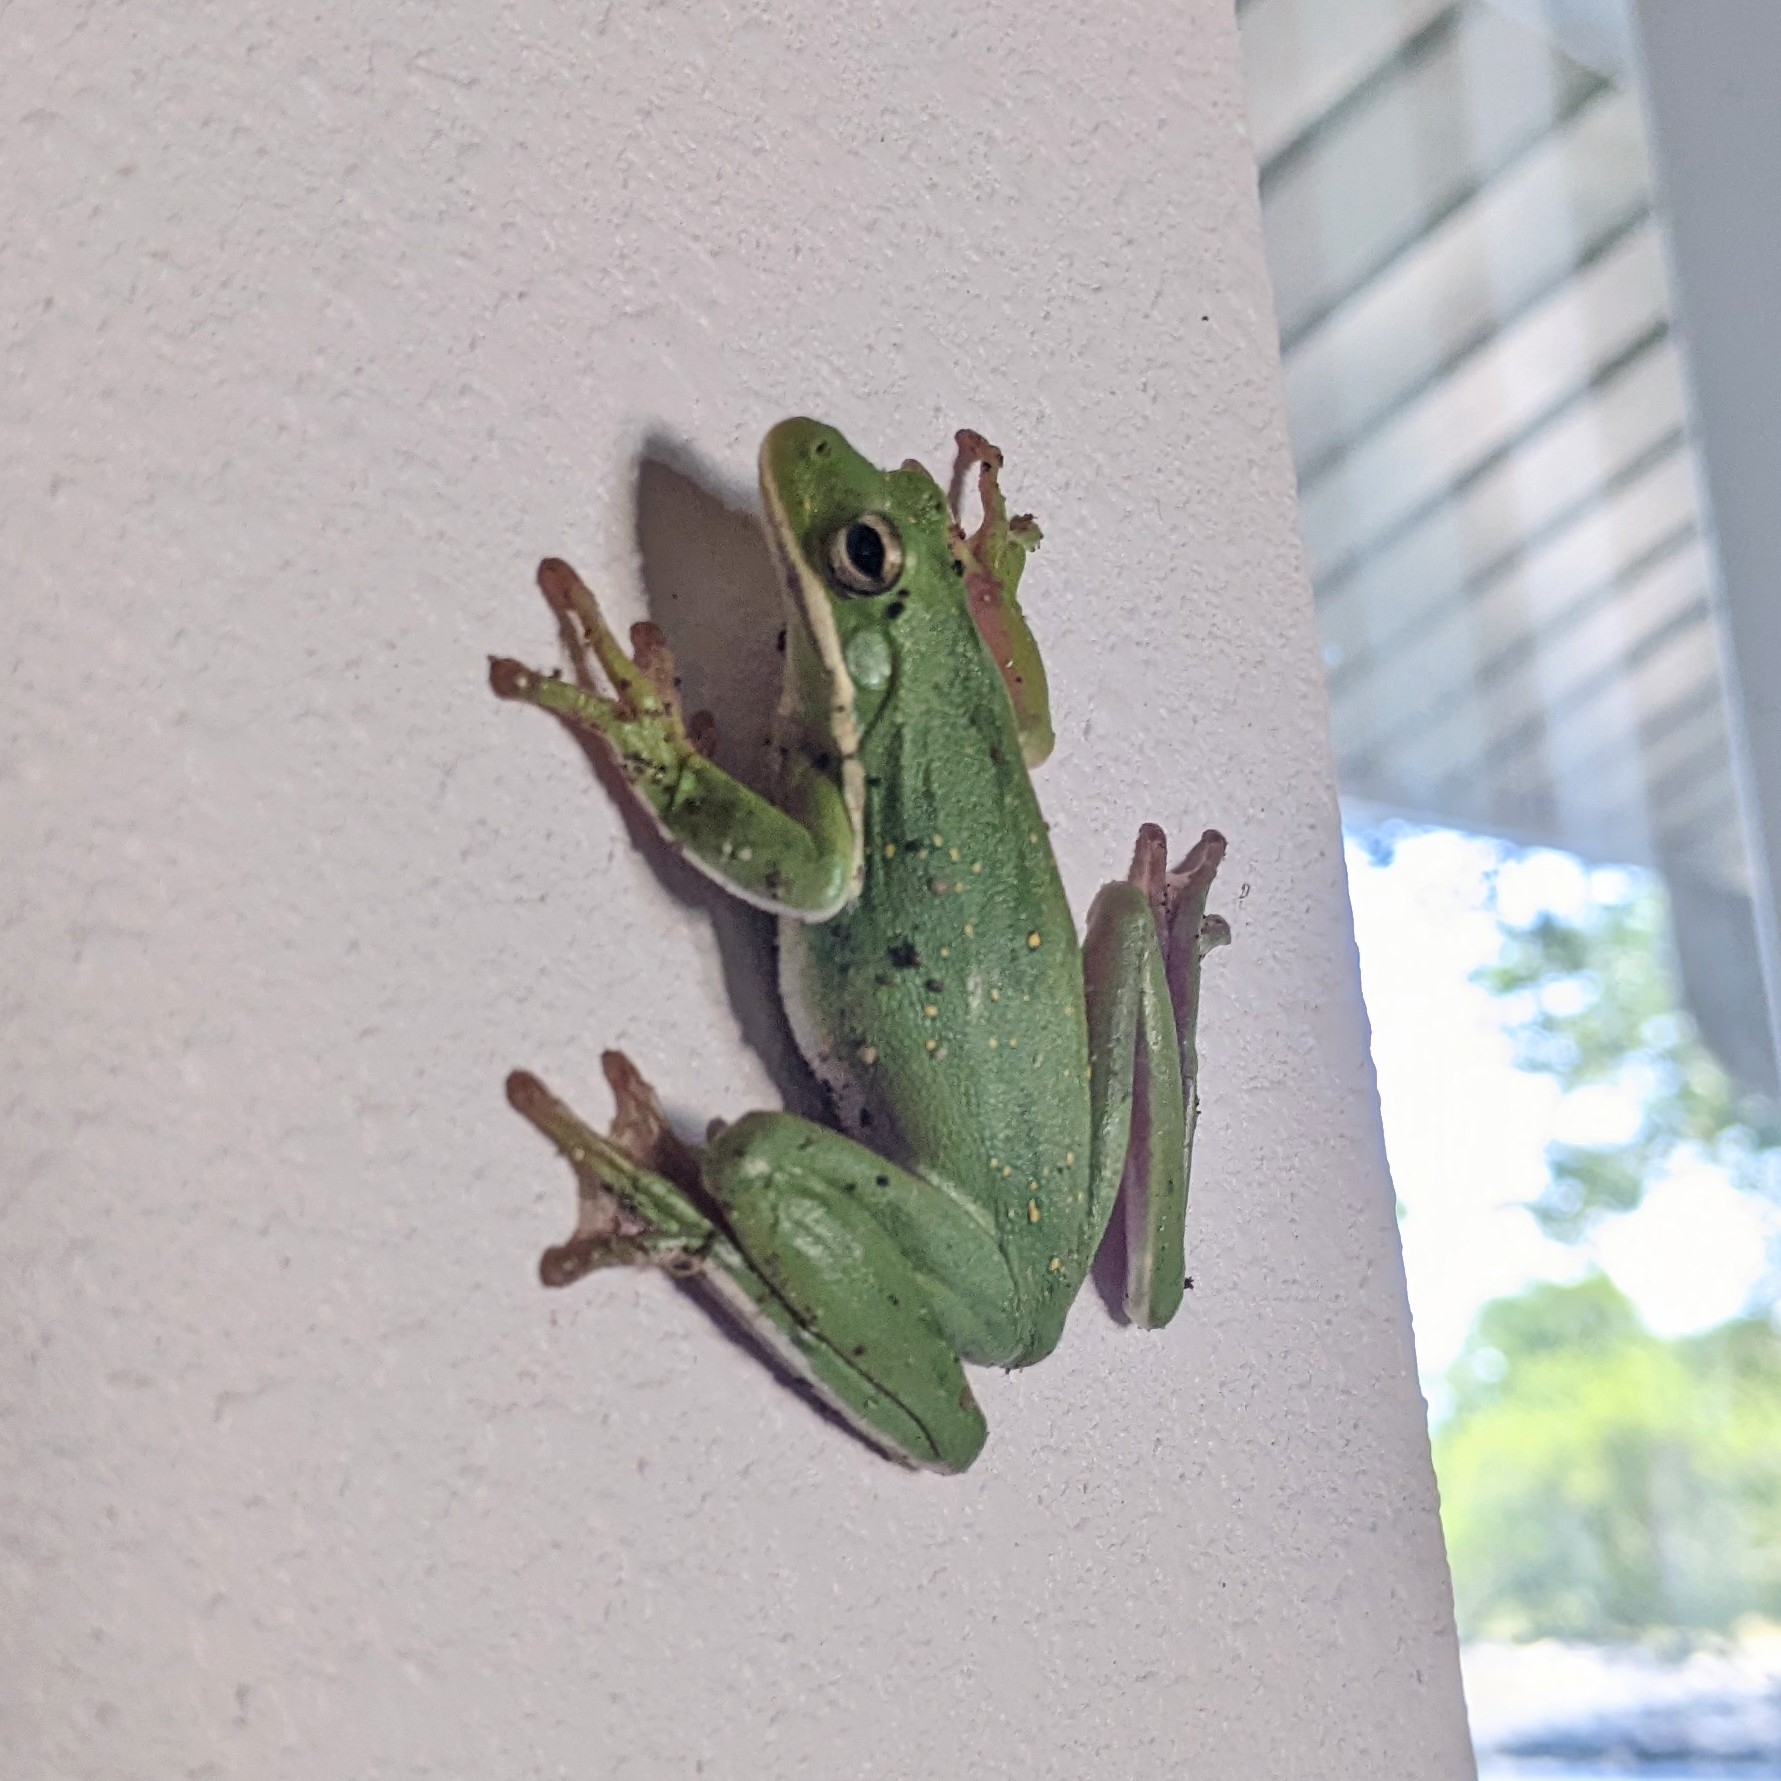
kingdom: Animalia
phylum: Chordata
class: Amphibia
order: Anura
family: Hylidae
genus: Dryophytes
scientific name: Dryophytes cinereus
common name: Green treefrog
